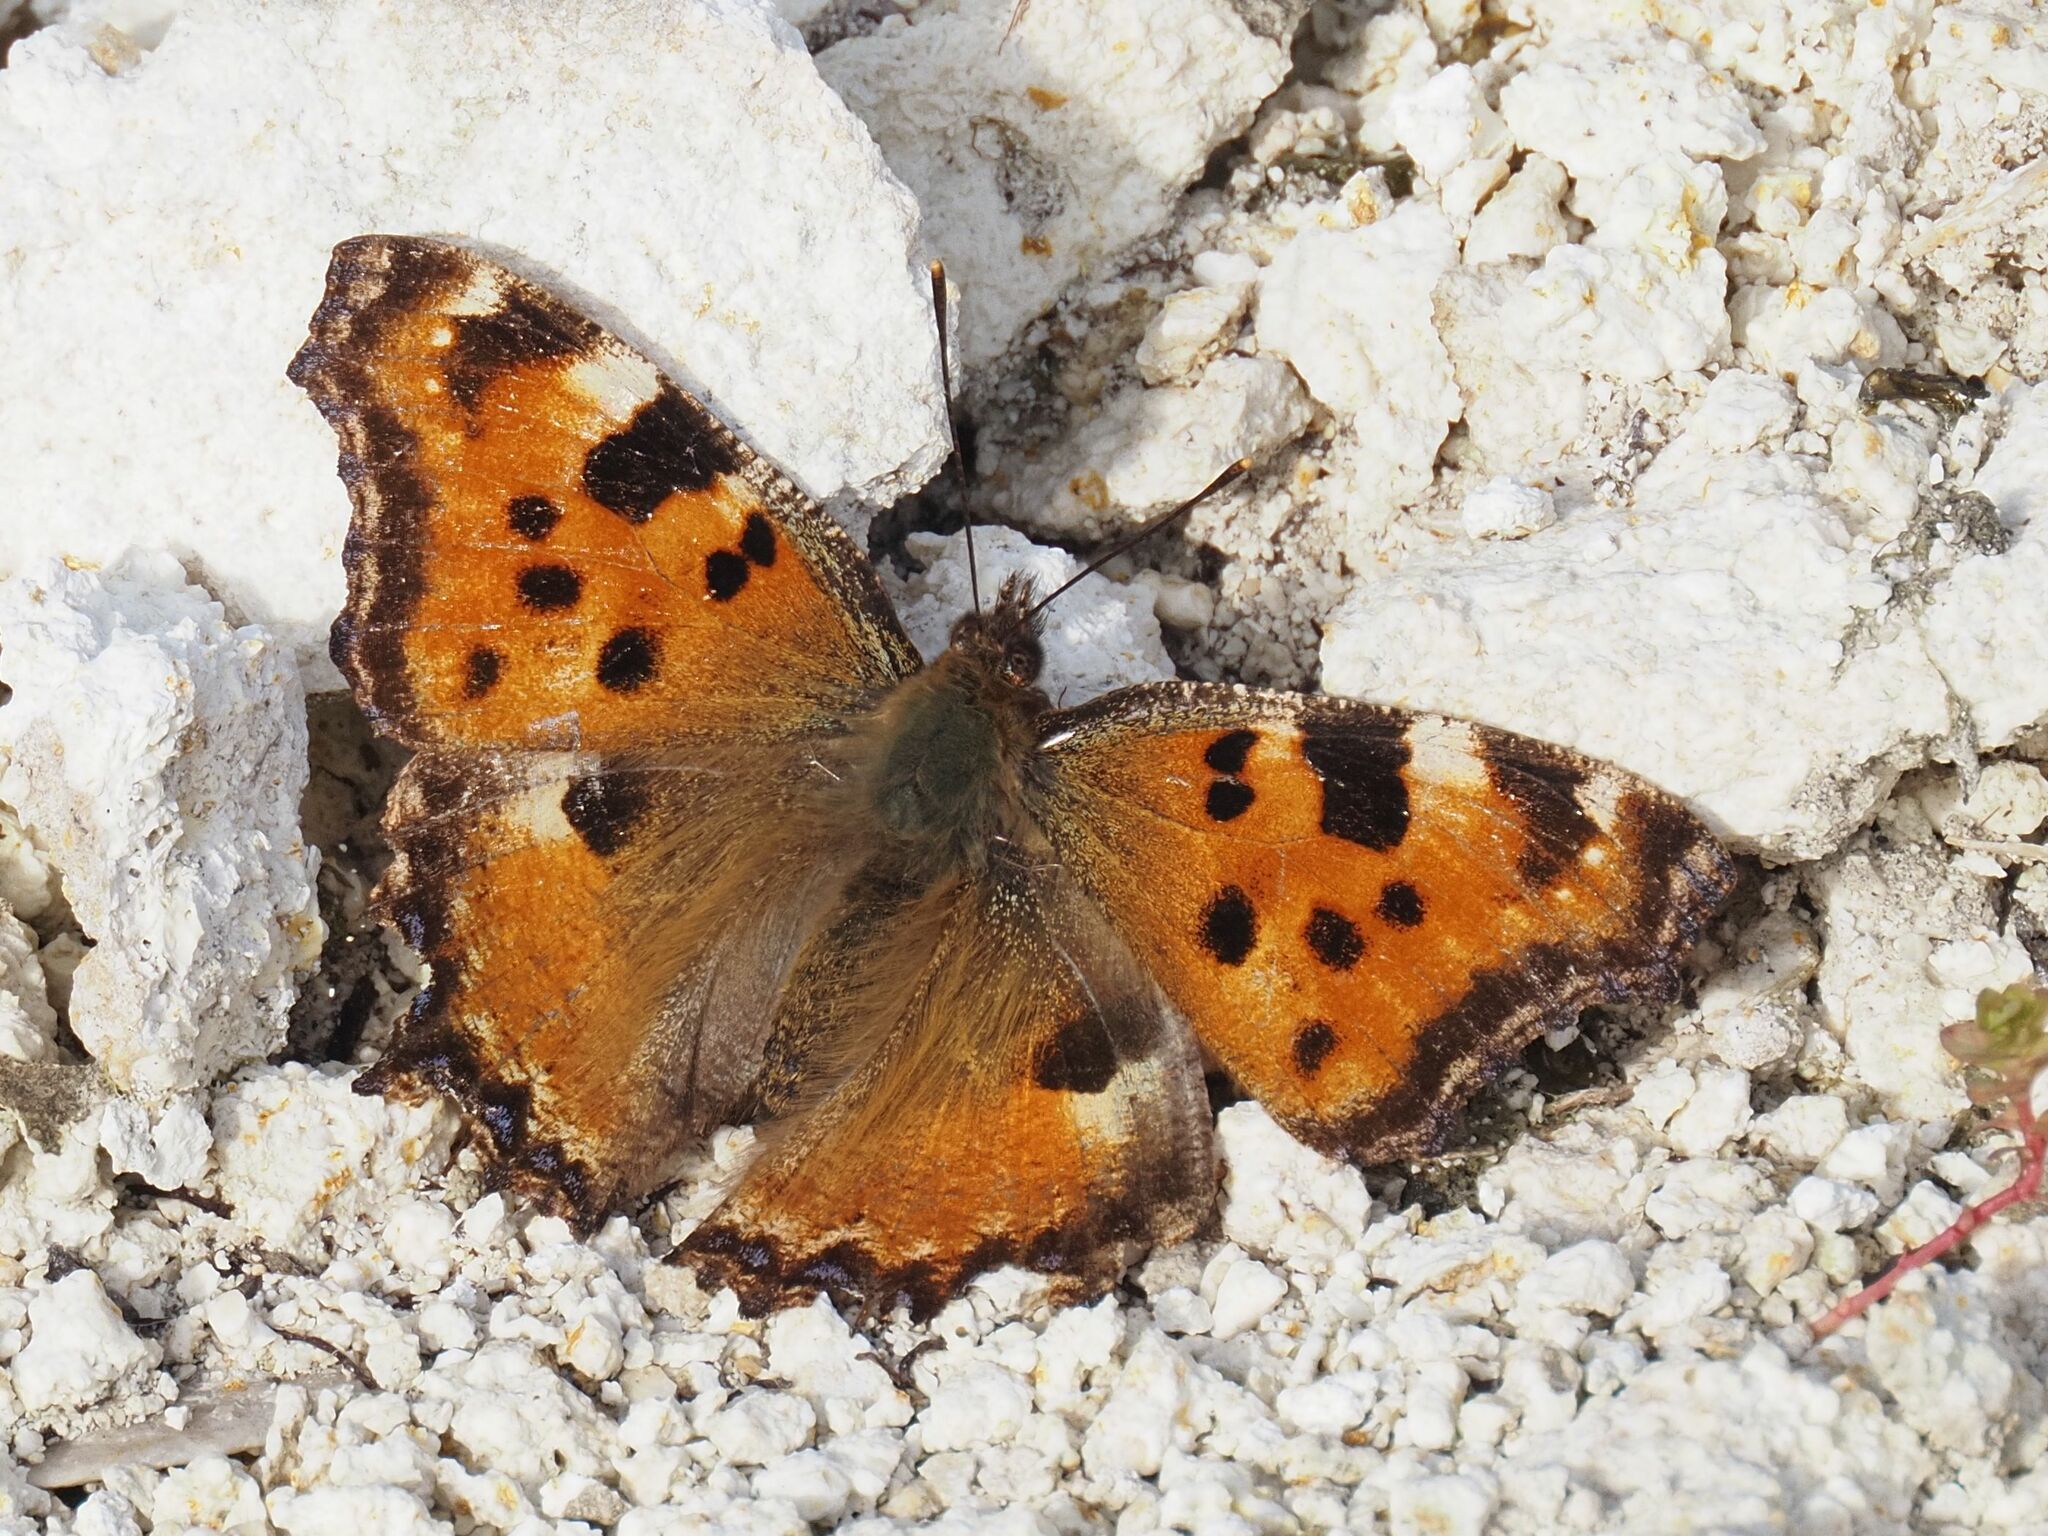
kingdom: Animalia
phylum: Arthropoda
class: Insecta
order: Lepidoptera
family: Nymphalidae
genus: Nymphalis
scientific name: Nymphalis polychloros
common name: Large tortoiseshell
